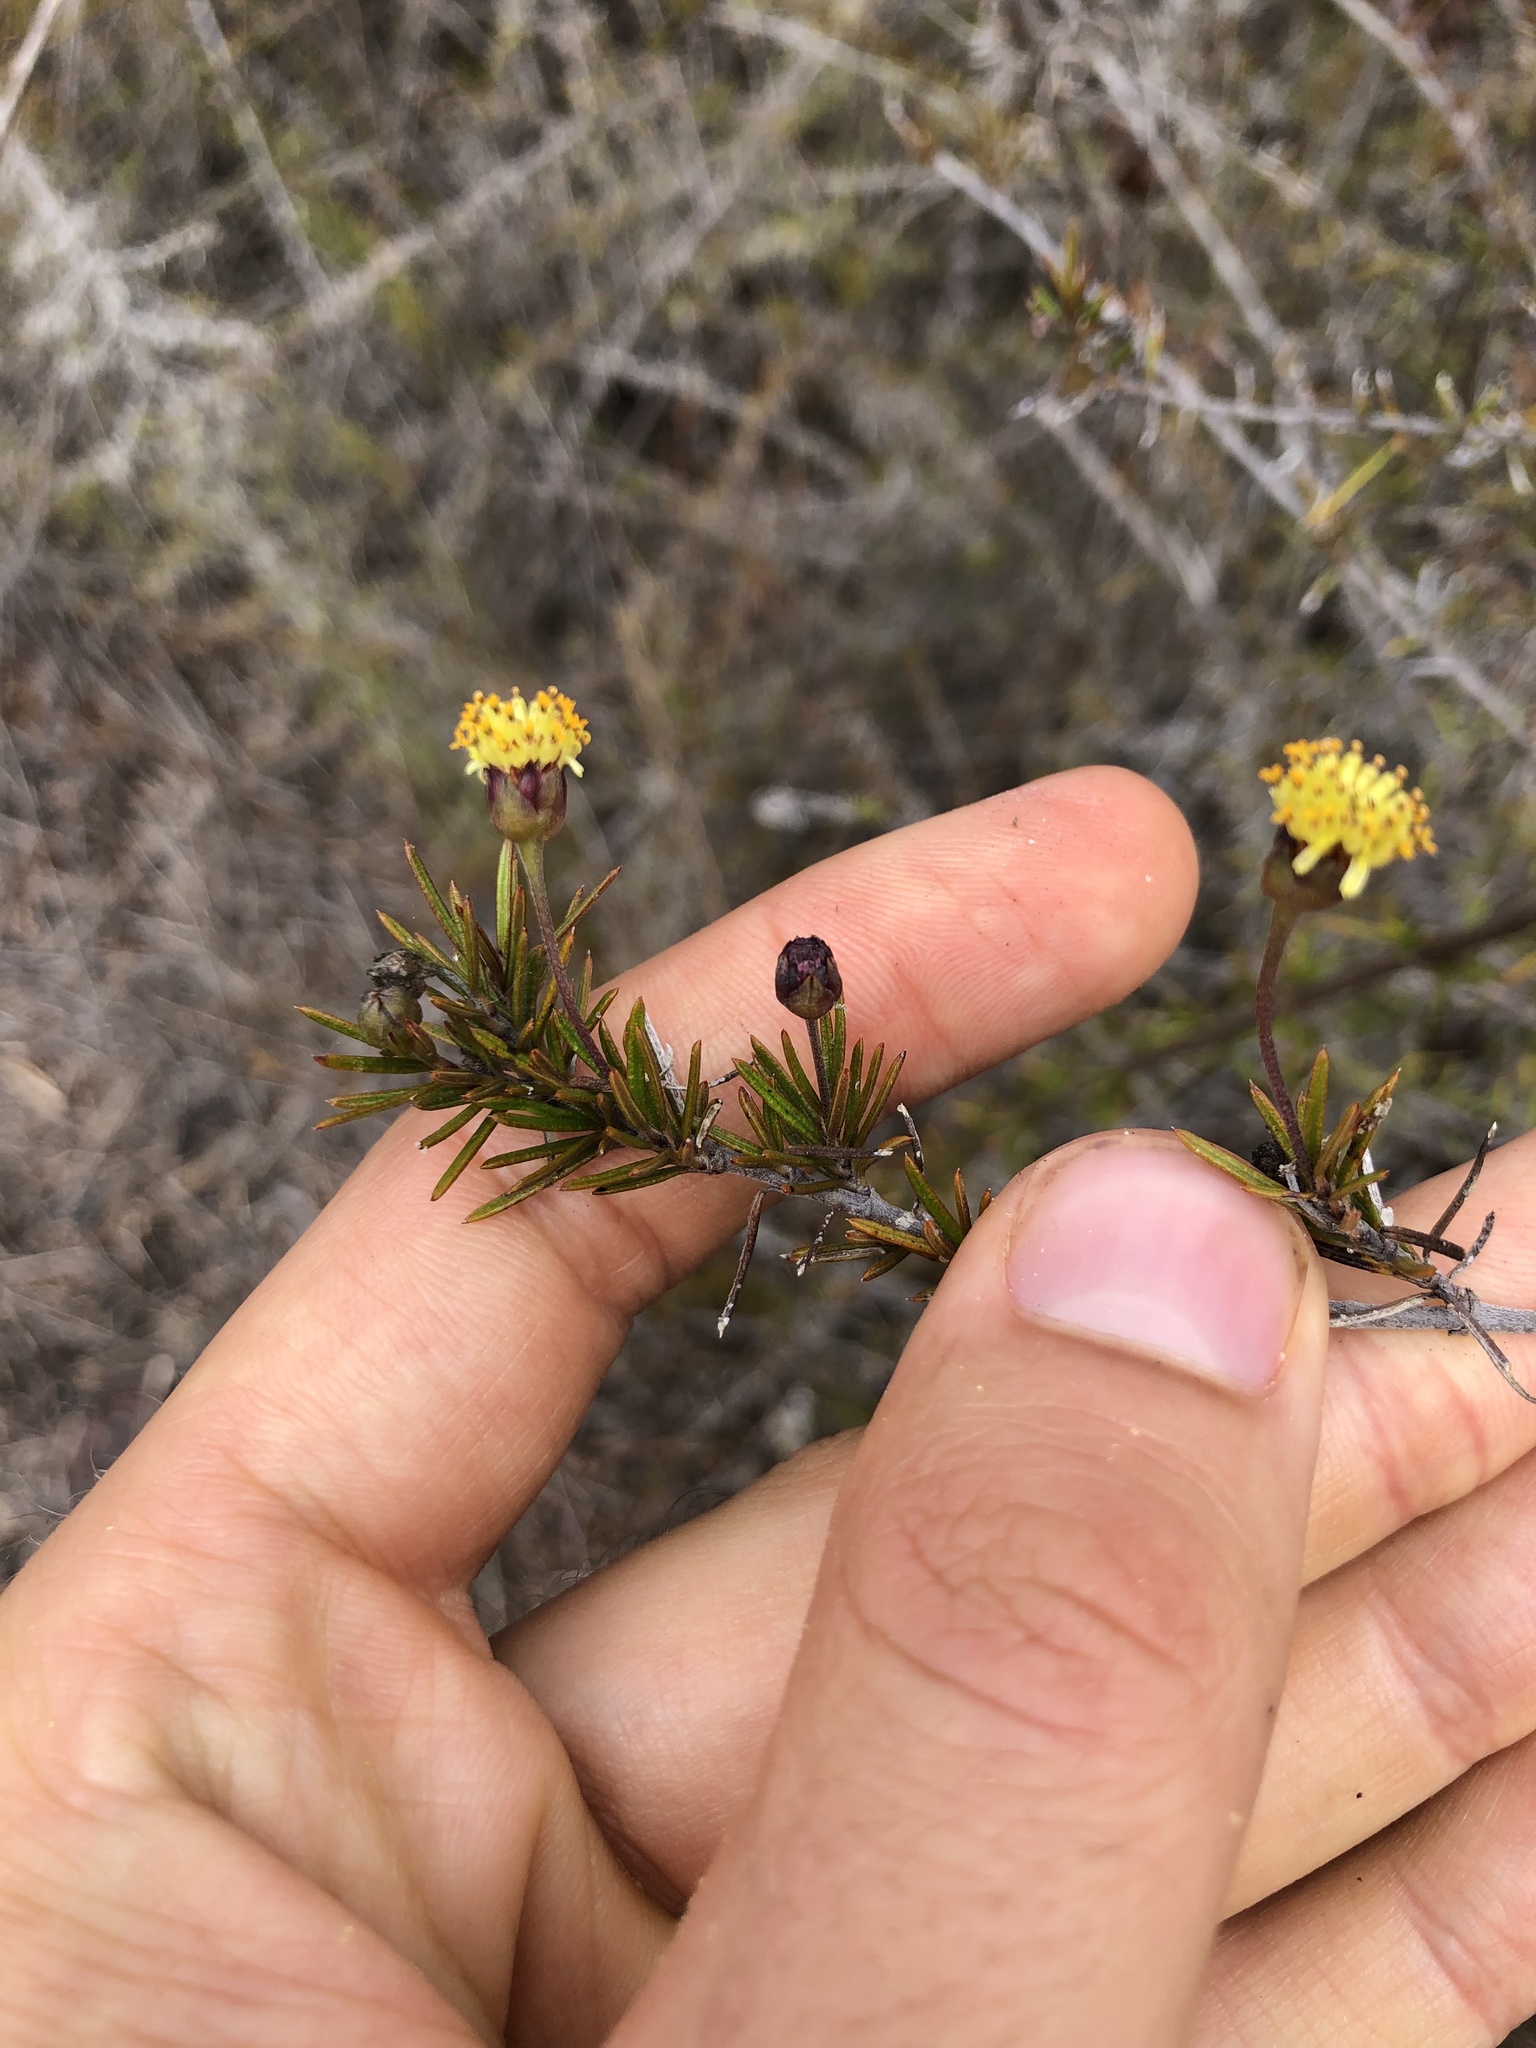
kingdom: Plantae
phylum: Tracheophyta
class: Magnoliopsida
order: Asterales
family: Asteraceae
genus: Trigonopterum
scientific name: Trigonopterum laricifolium
